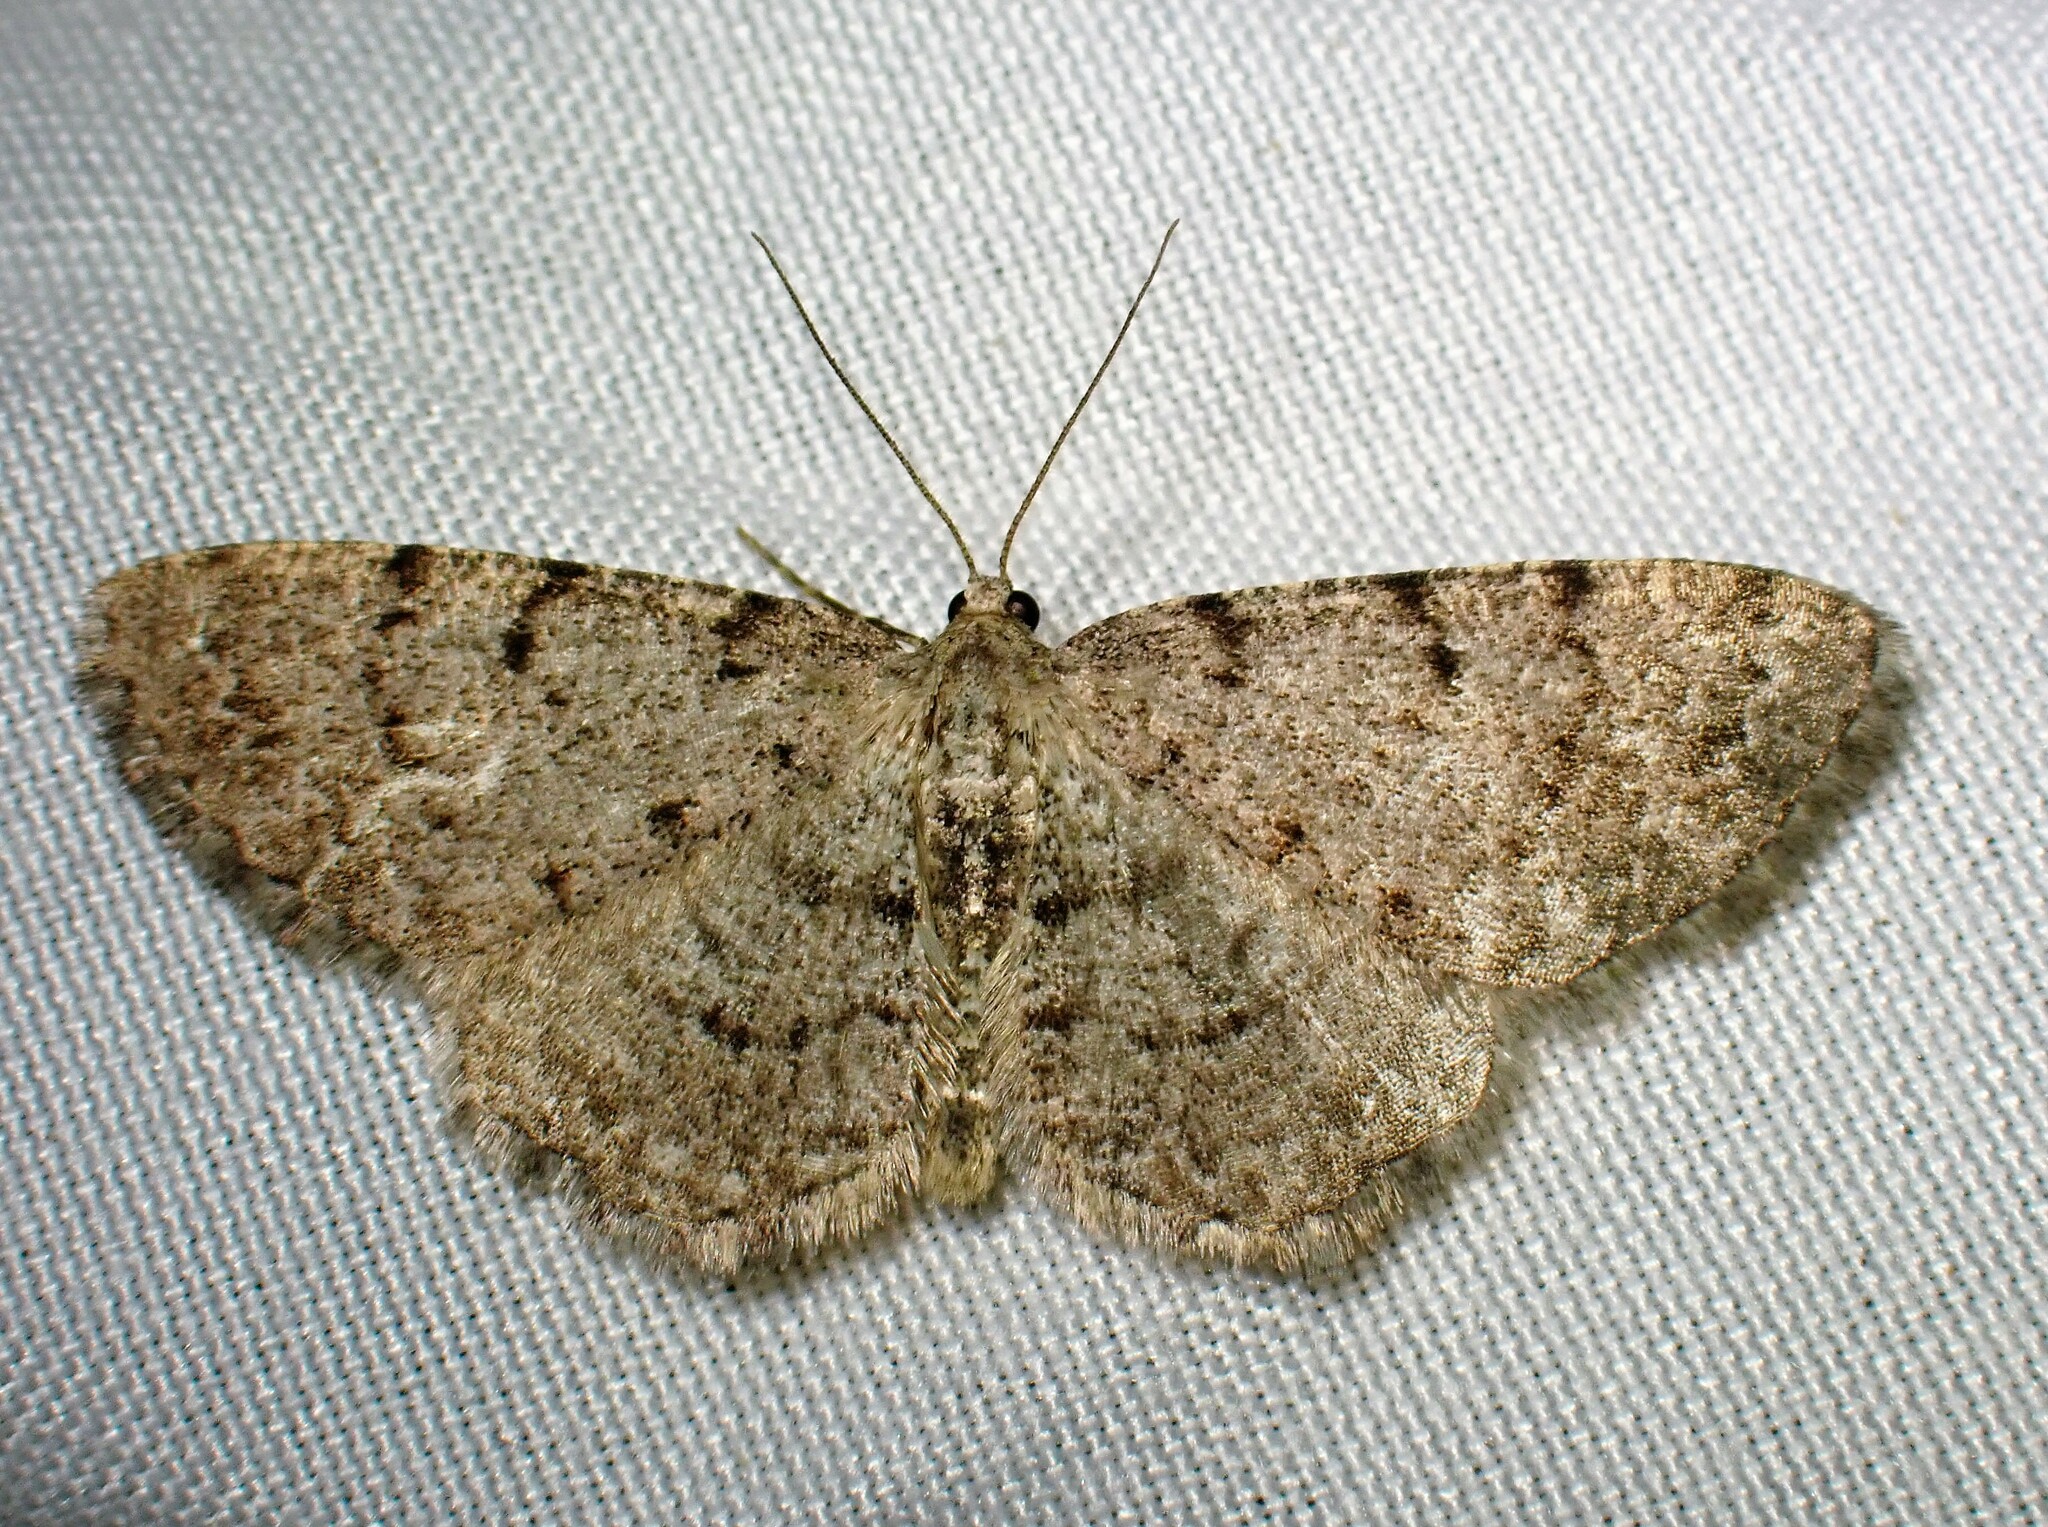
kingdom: Animalia
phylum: Arthropoda
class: Insecta
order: Lepidoptera
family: Geometridae
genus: Aethalura
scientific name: Aethalura intertexta
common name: Four-barred gray
